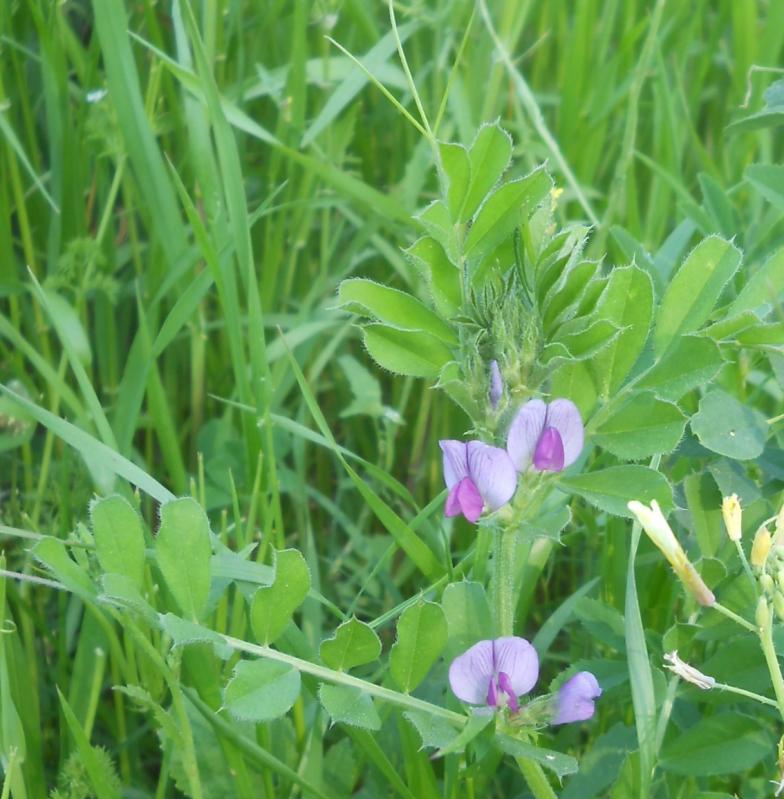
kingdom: Plantae
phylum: Tracheophyta
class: Magnoliopsida
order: Fabales
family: Fabaceae
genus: Vicia
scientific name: Vicia sativa
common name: Garden vetch
